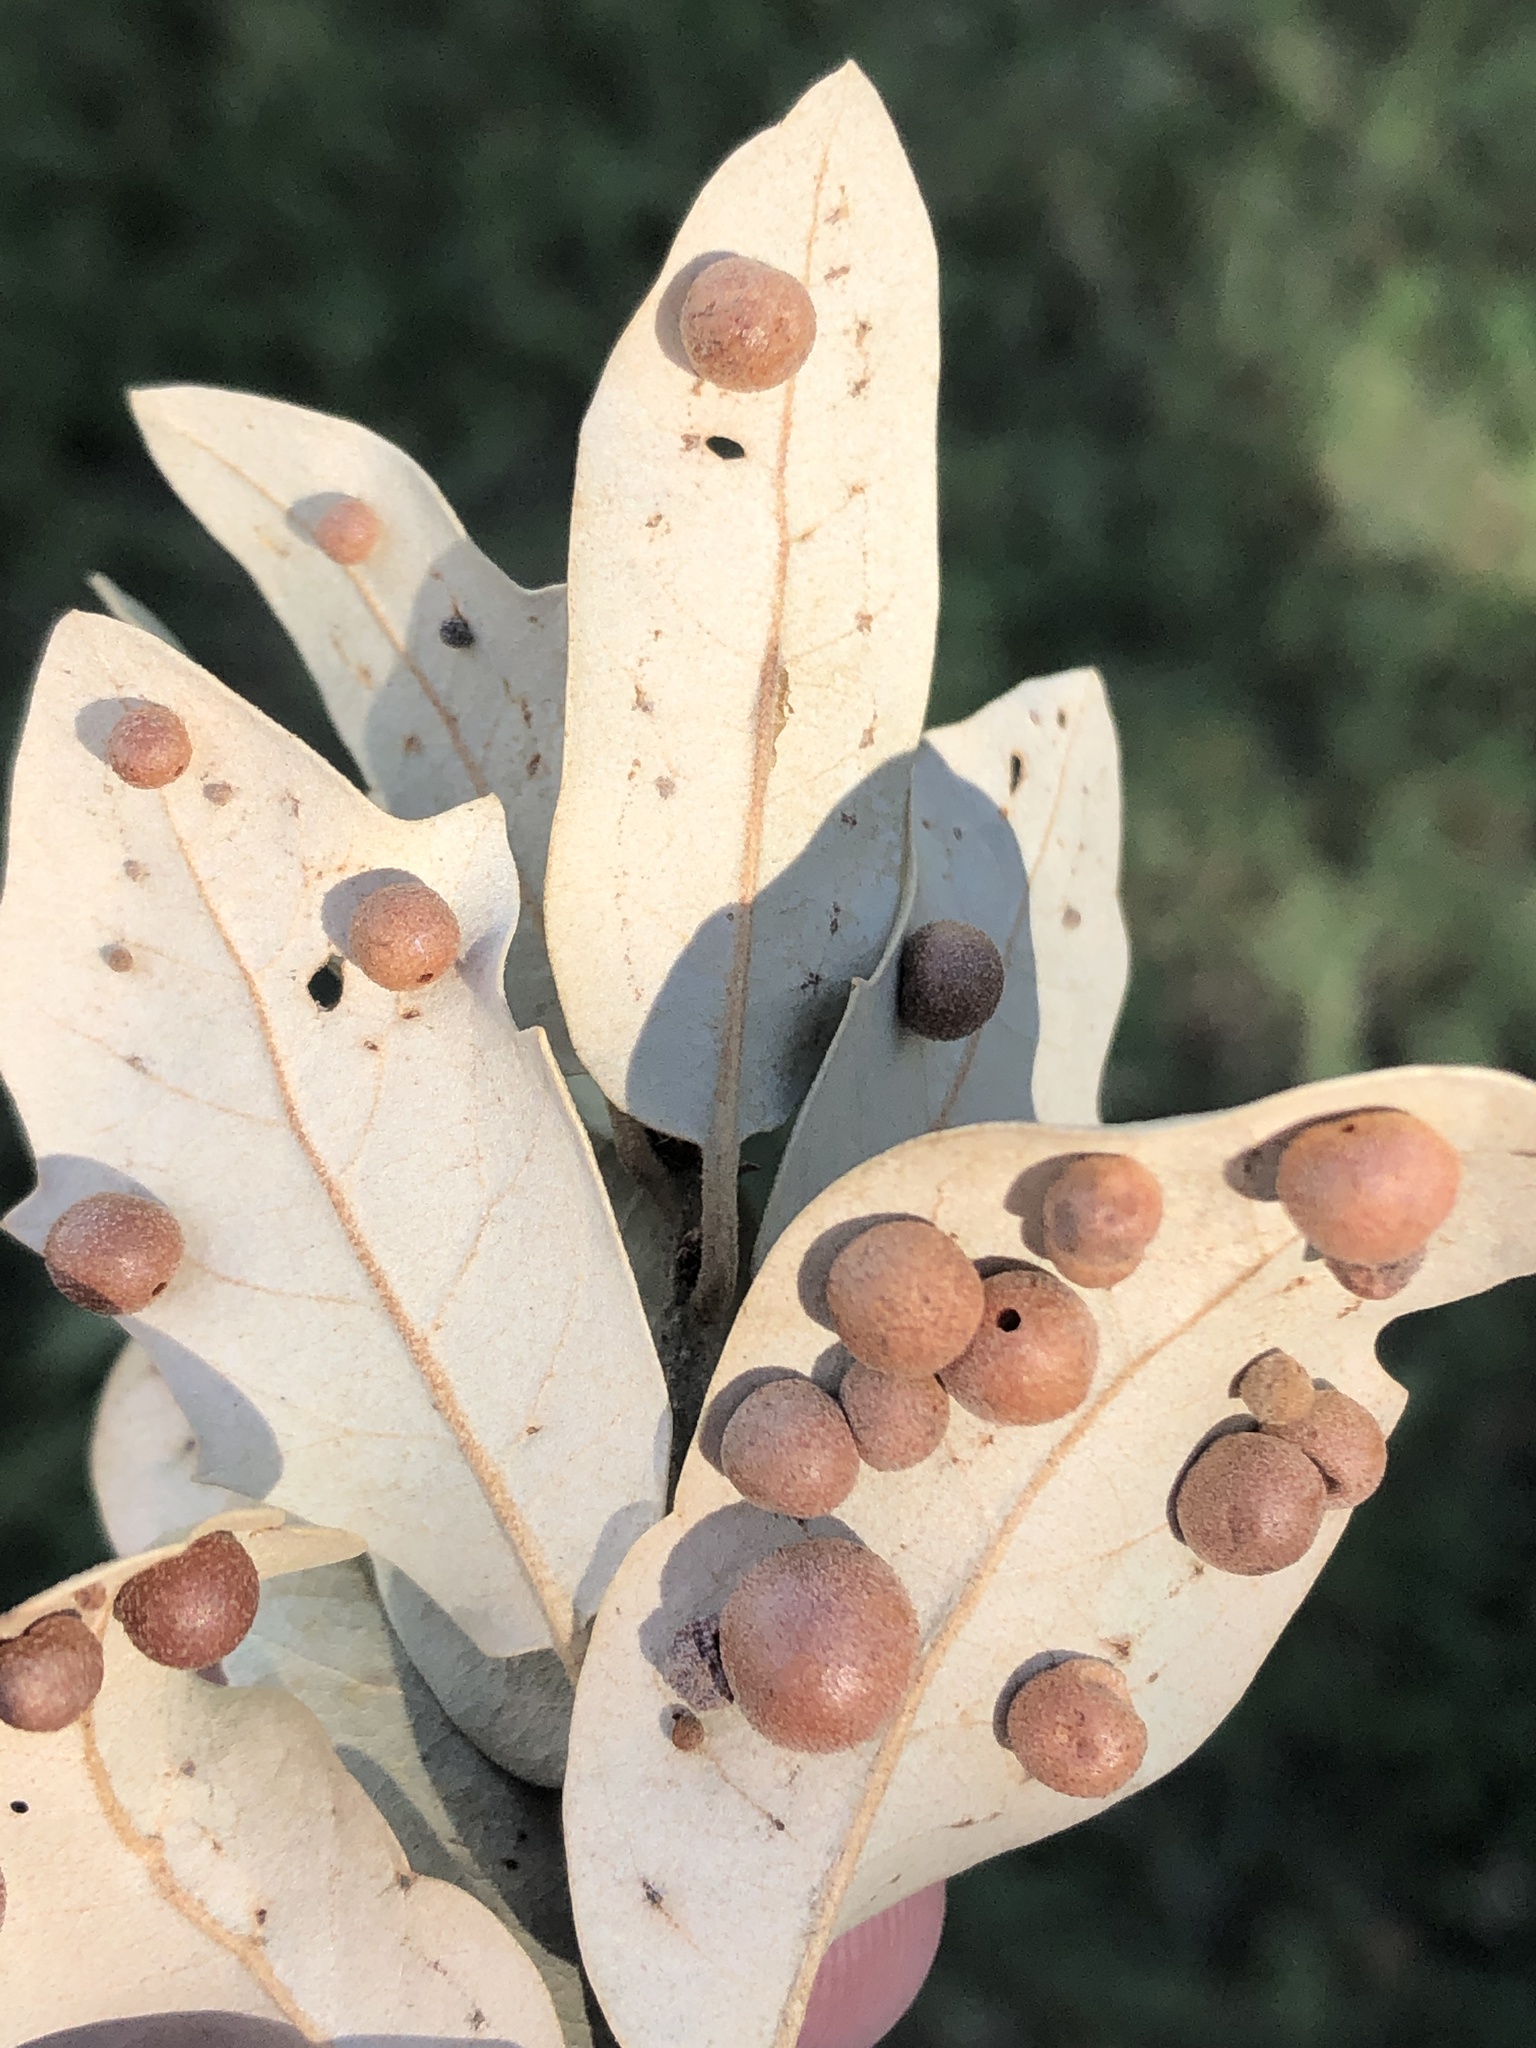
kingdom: Animalia
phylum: Arthropoda
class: Insecta
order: Hymenoptera
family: Cynipidae
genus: Belonocnema
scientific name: Belonocnema kinseyi
